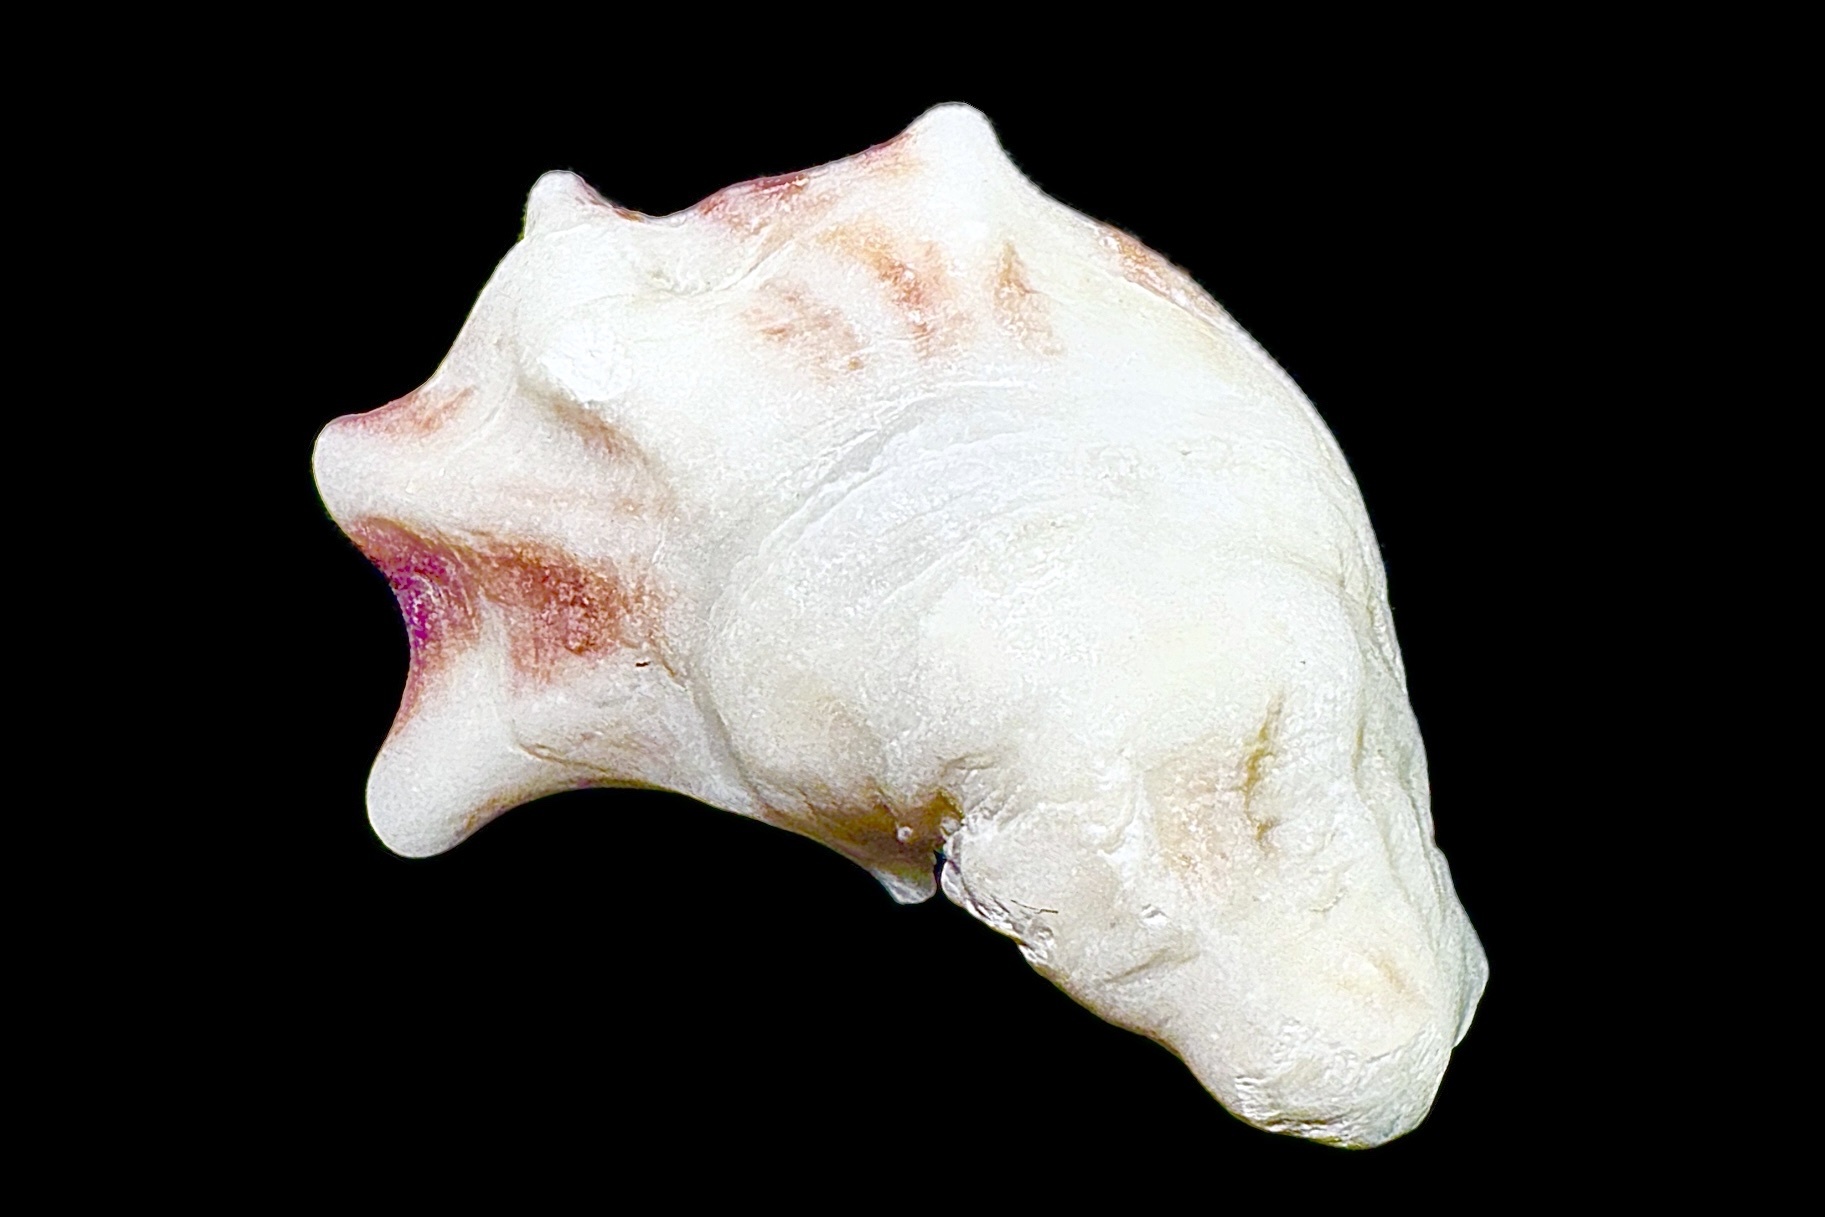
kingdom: Animalia
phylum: Mollusca
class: Bivalvia
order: Ostreida
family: Ostreidae
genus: Crassostrea
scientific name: Crassostrea virginica
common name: American oyster
